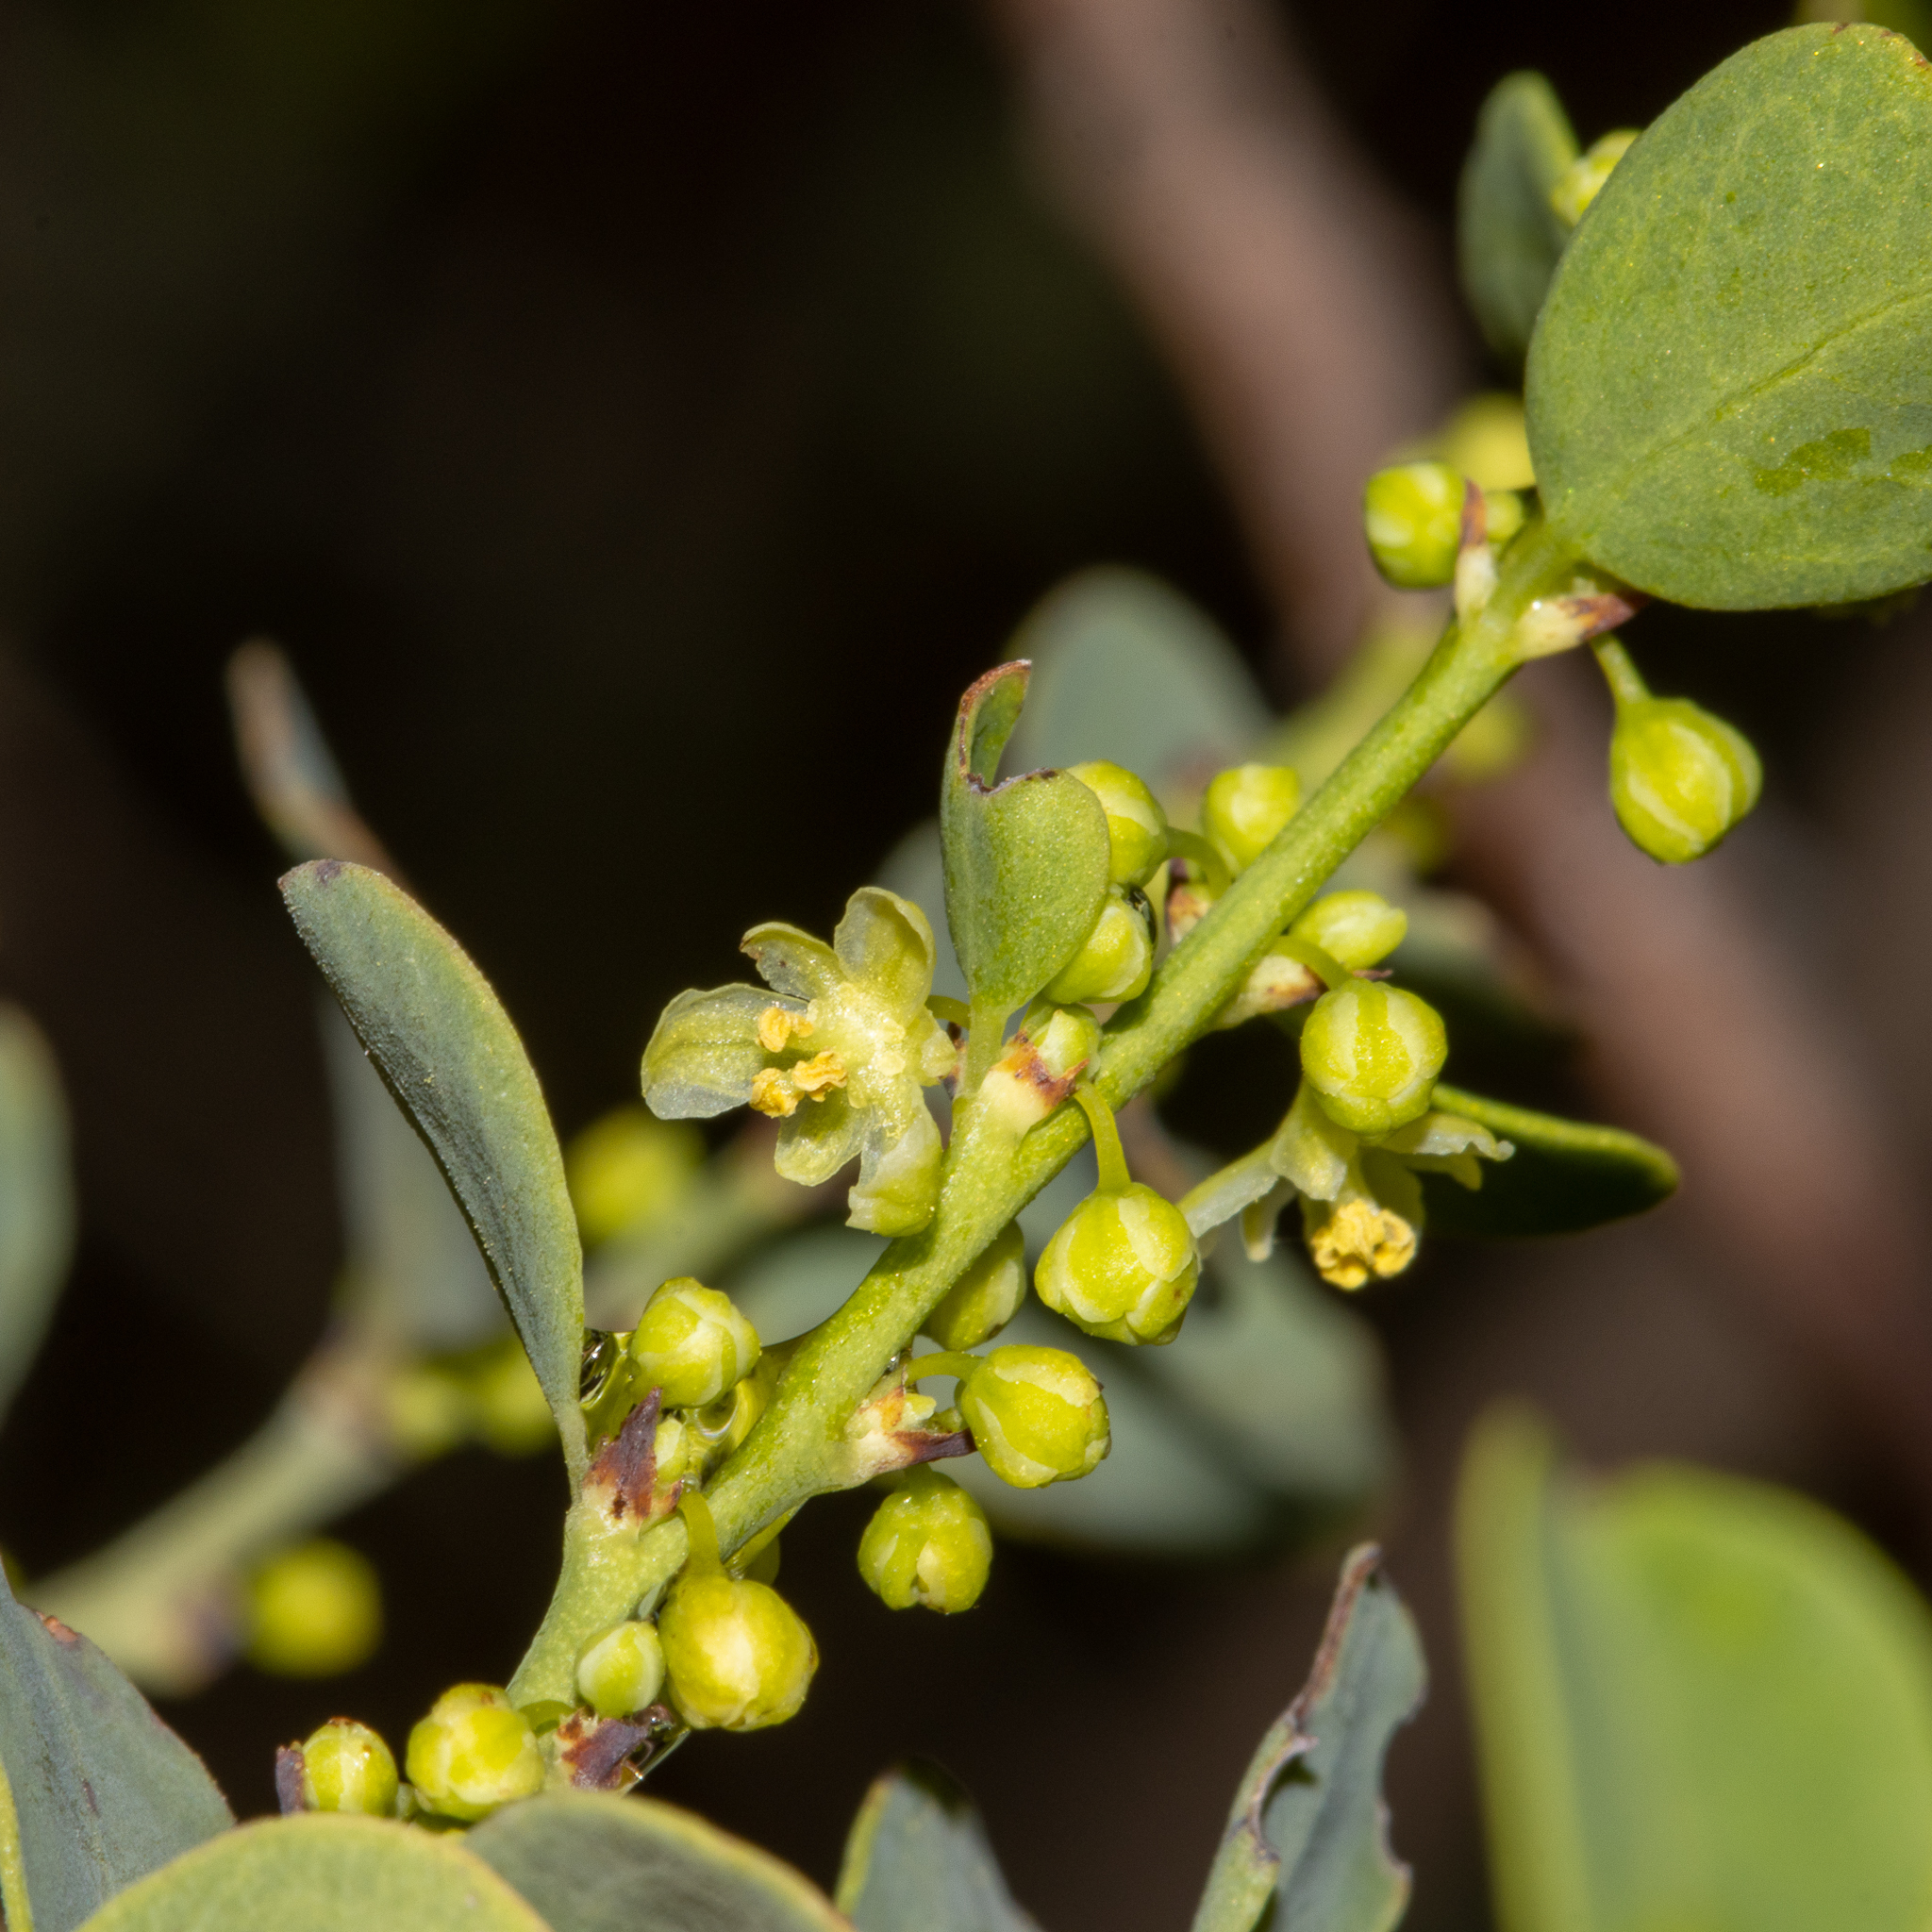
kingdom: Plantae
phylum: Tracheophyta
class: Magnoliopsida
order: Malpighiales
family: Phyllanthaceae
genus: Phyllanthus
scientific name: Phyllanthus saxosus
